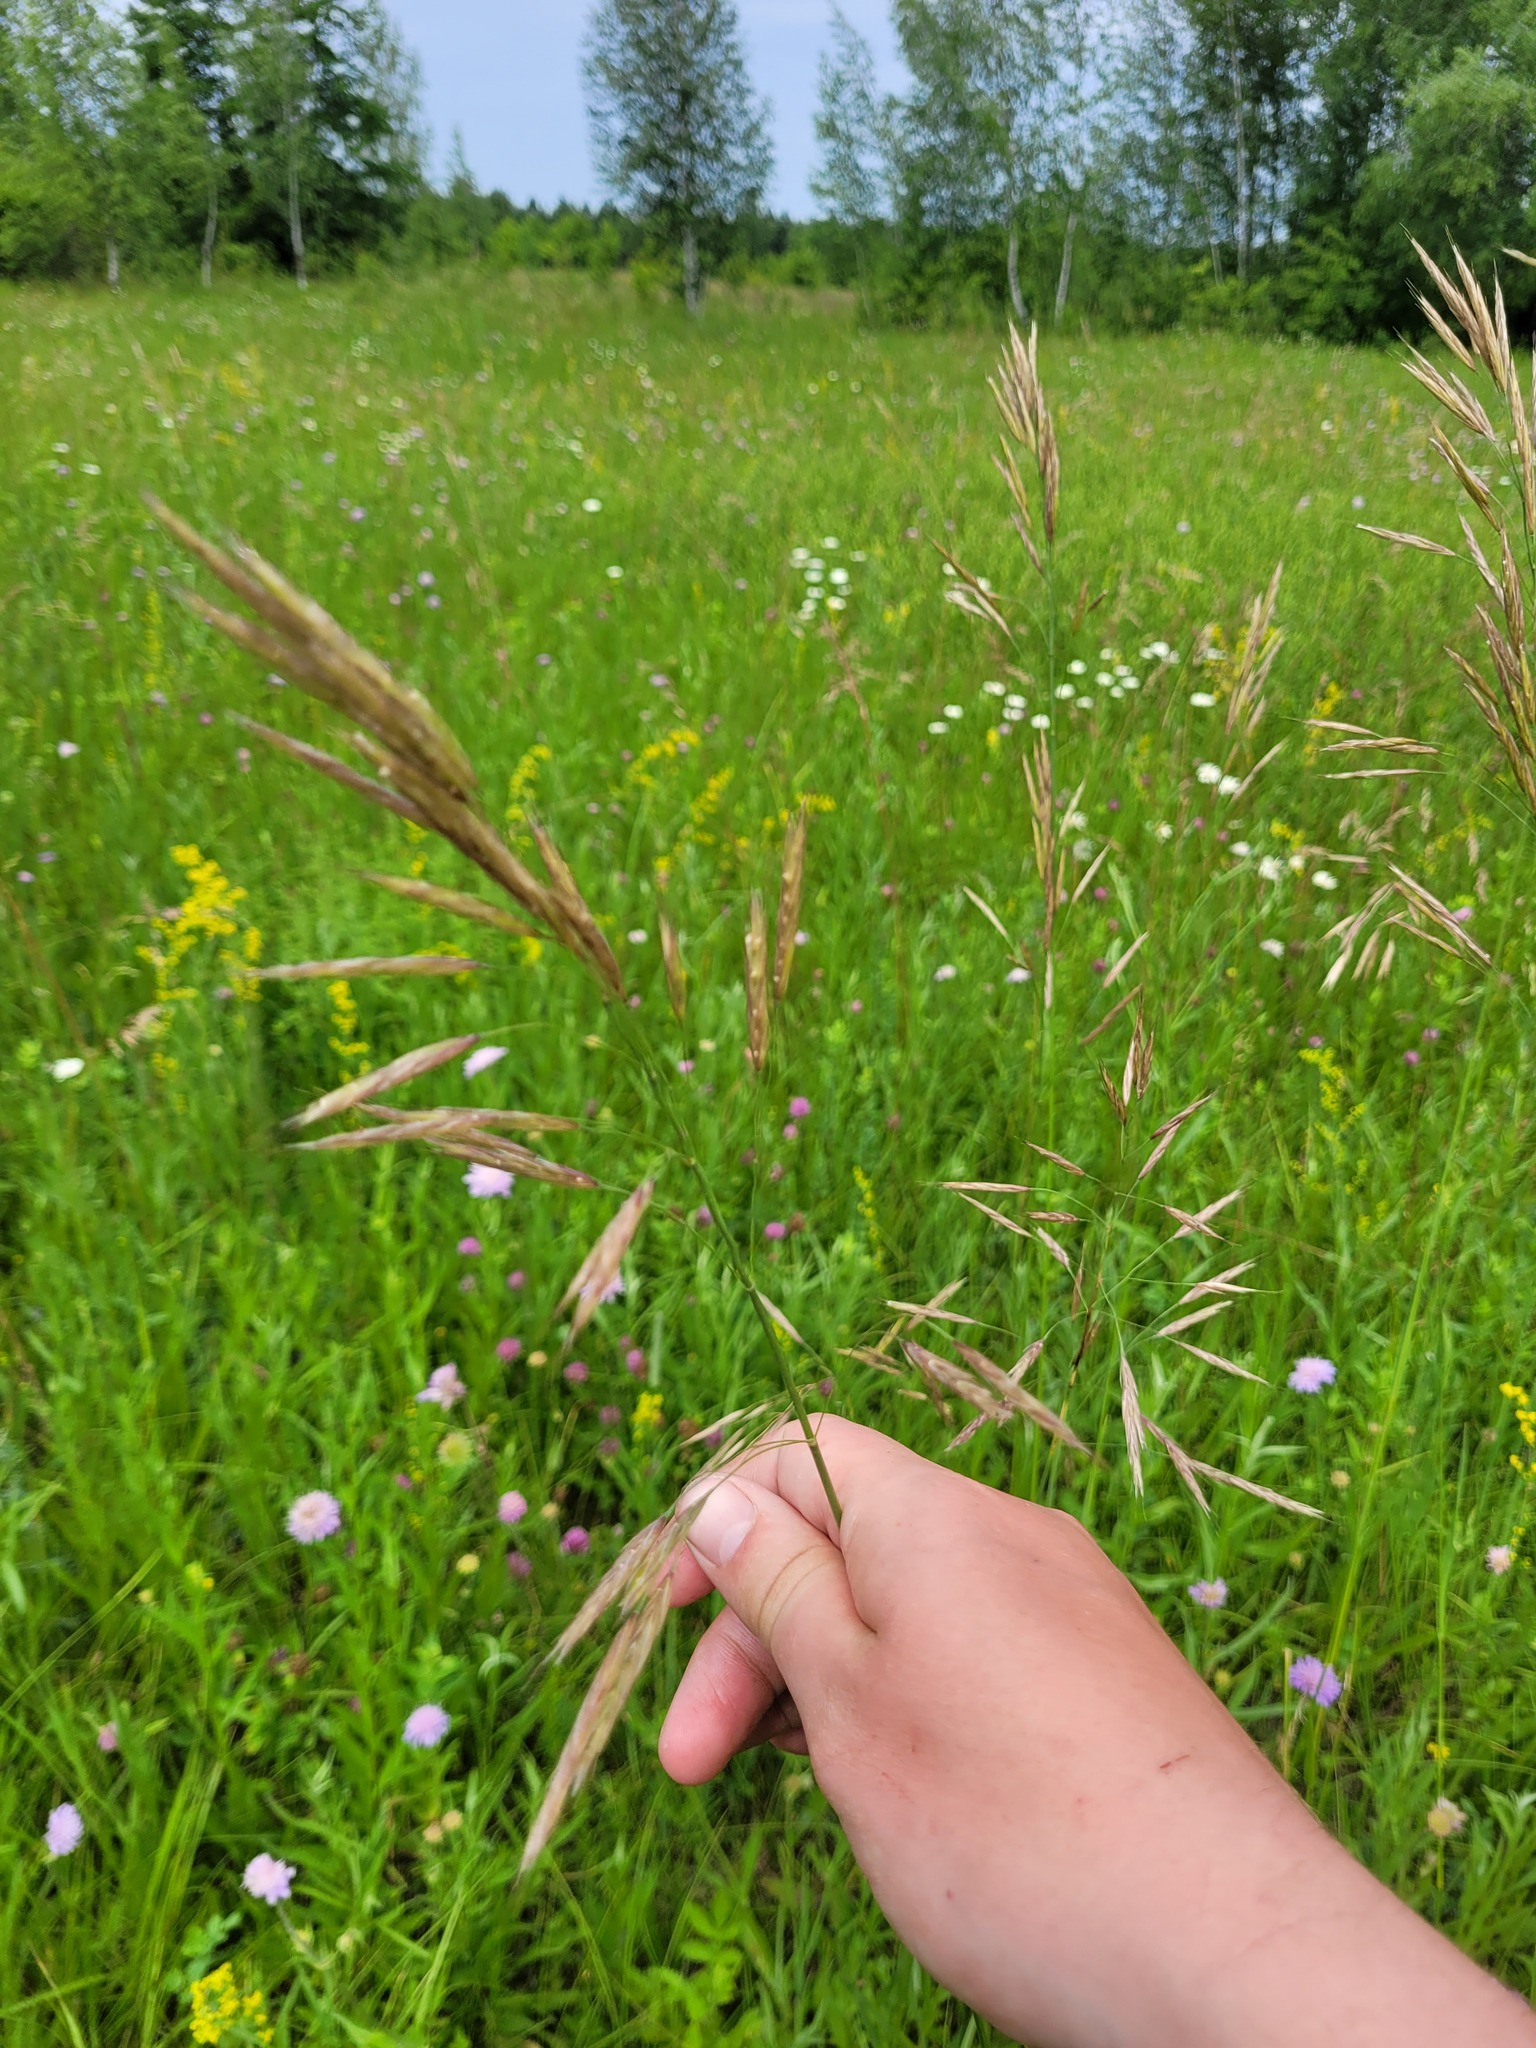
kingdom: Plantae
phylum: Tracheophyta
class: Liliopsida
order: Poales
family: Poaceae
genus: Bromus
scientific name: Bromus riparius
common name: Meadow brome
